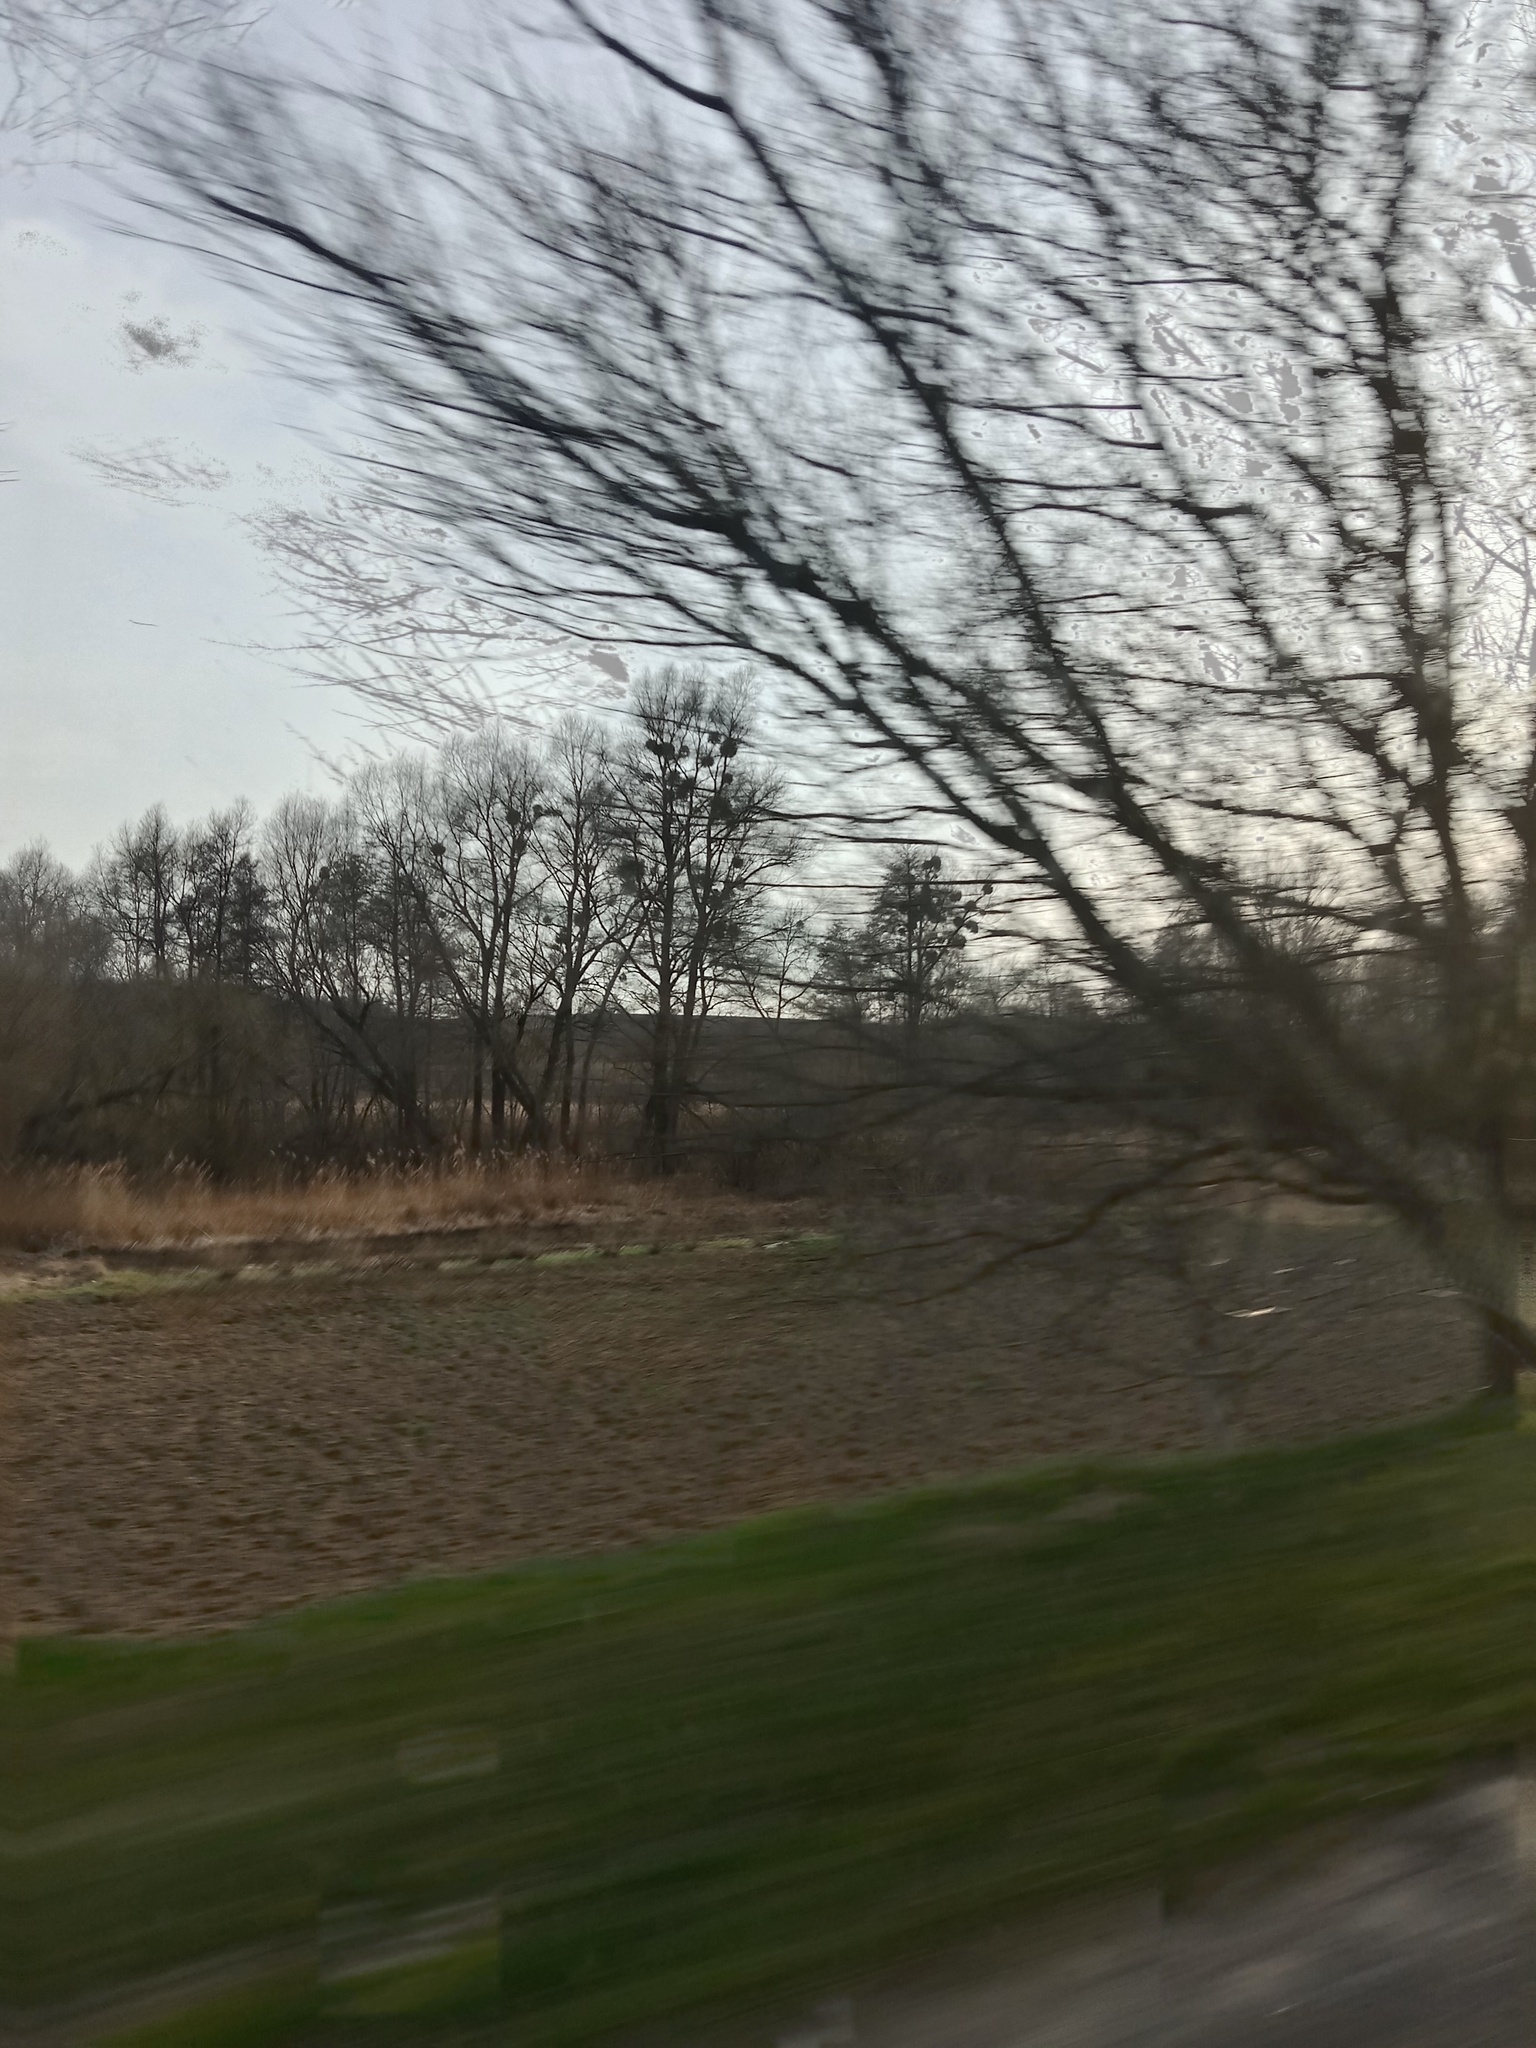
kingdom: Plantae
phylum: Tracheophyta
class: Magnoliopsida
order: Santalales
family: Viscaceae
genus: Viscum
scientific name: Viscum album
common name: Mistletoe
